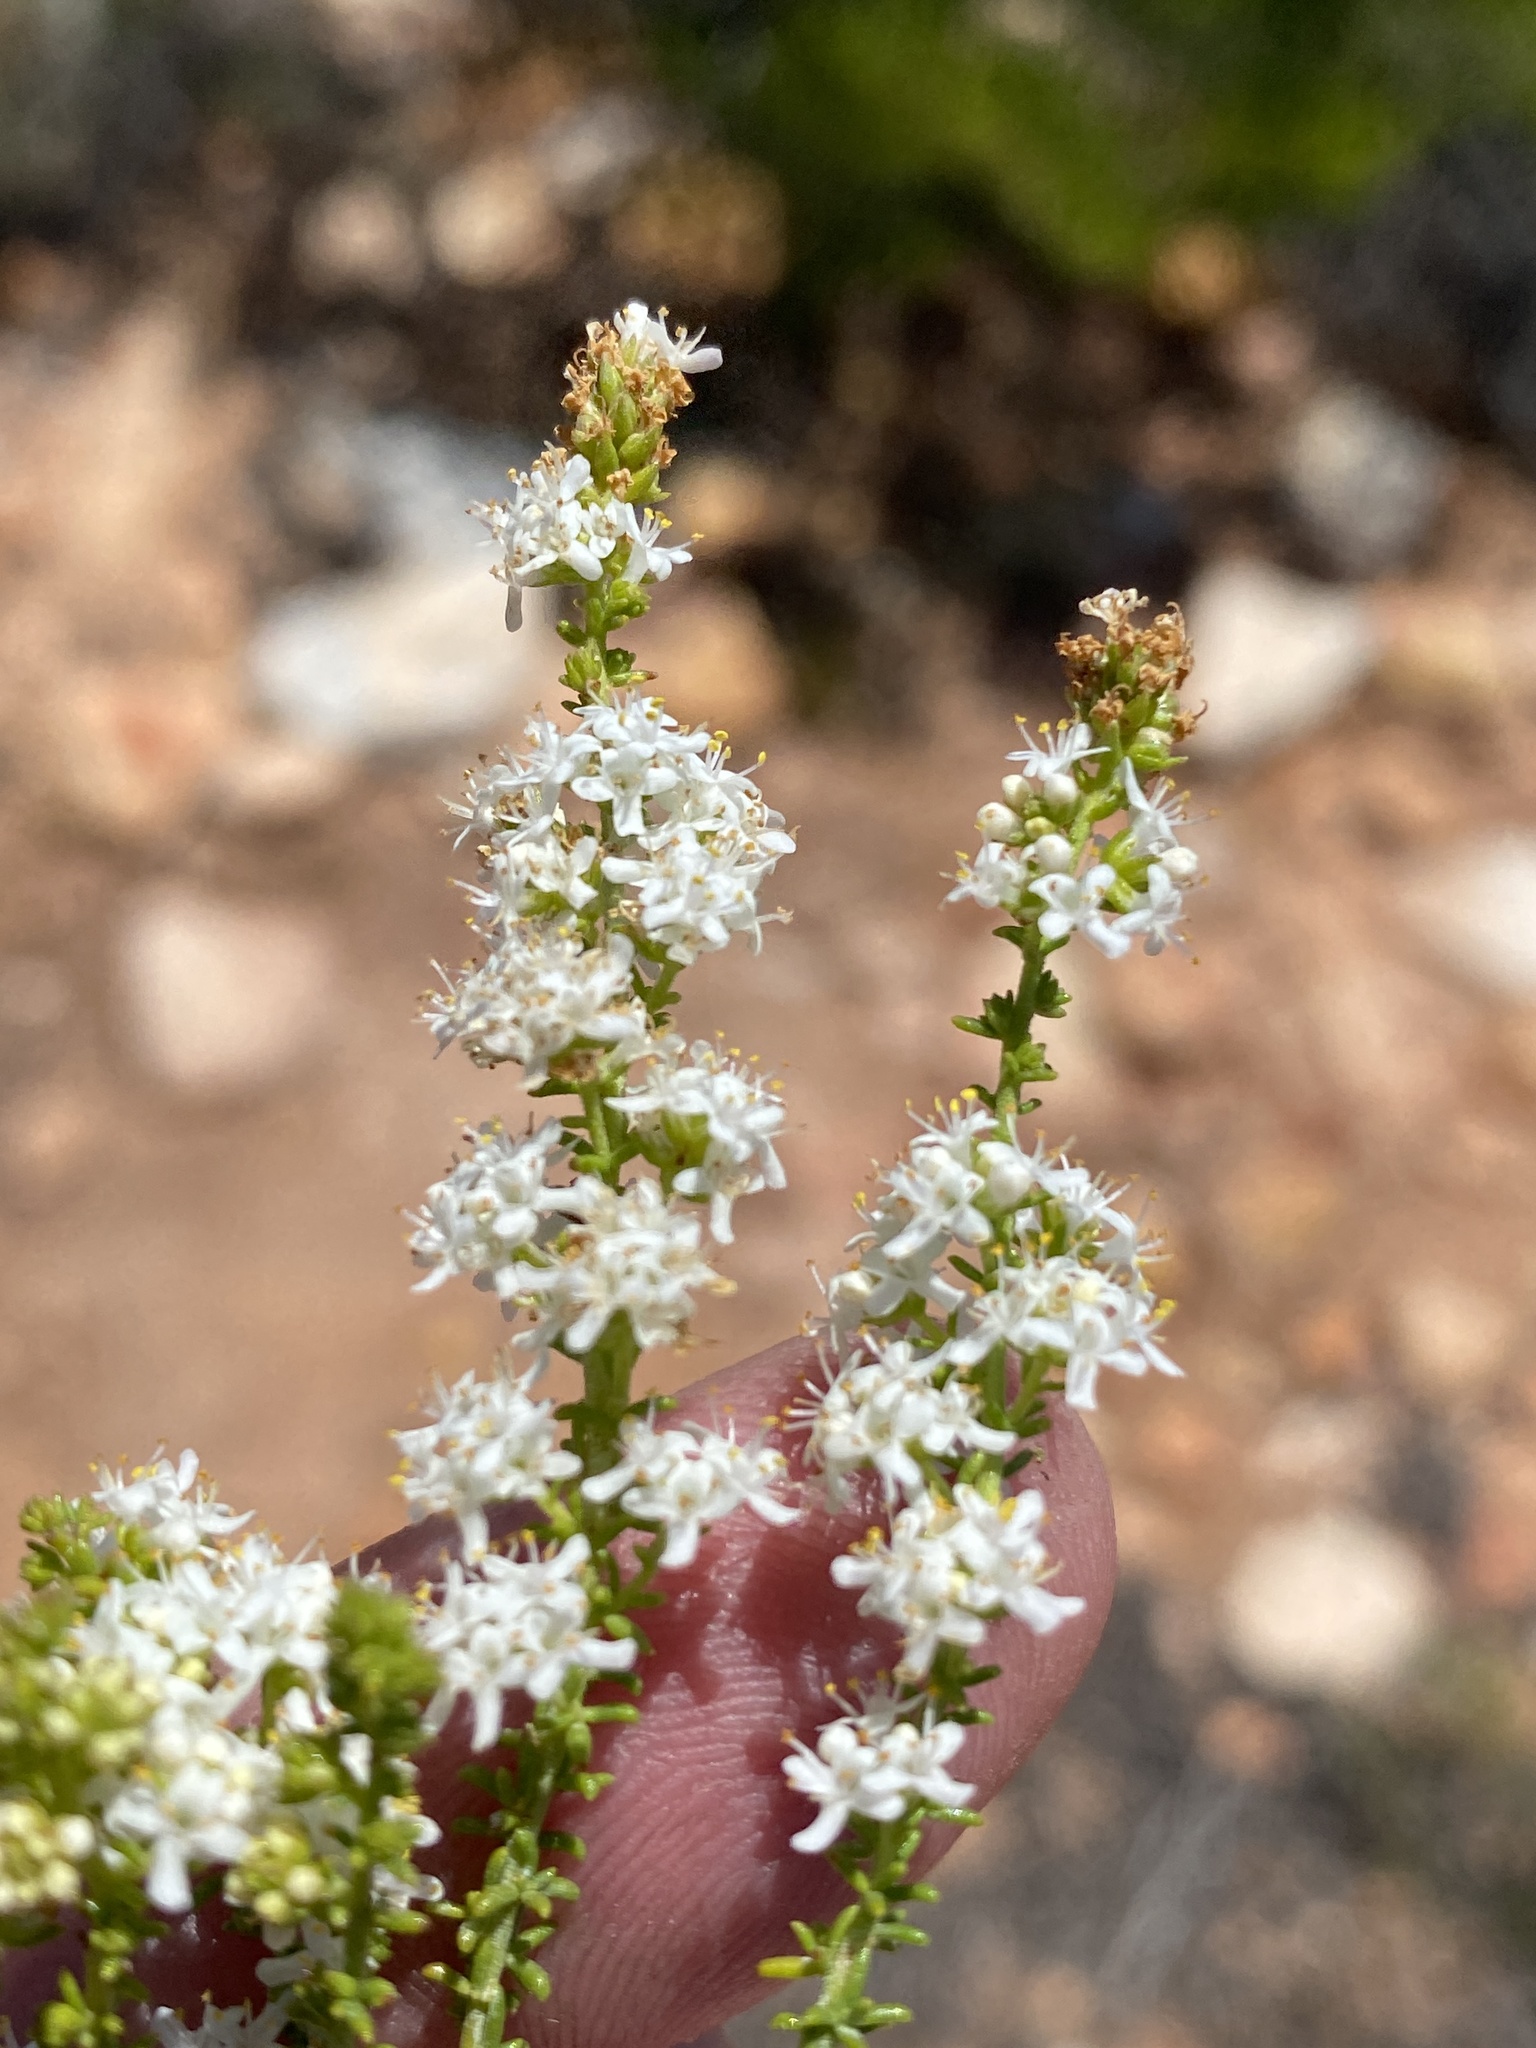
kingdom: Plantae
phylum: Tracheophyta
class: Magnoliopsida
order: Lamiales
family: Scrophulariaceae
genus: Selago
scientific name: Selago gracilis
